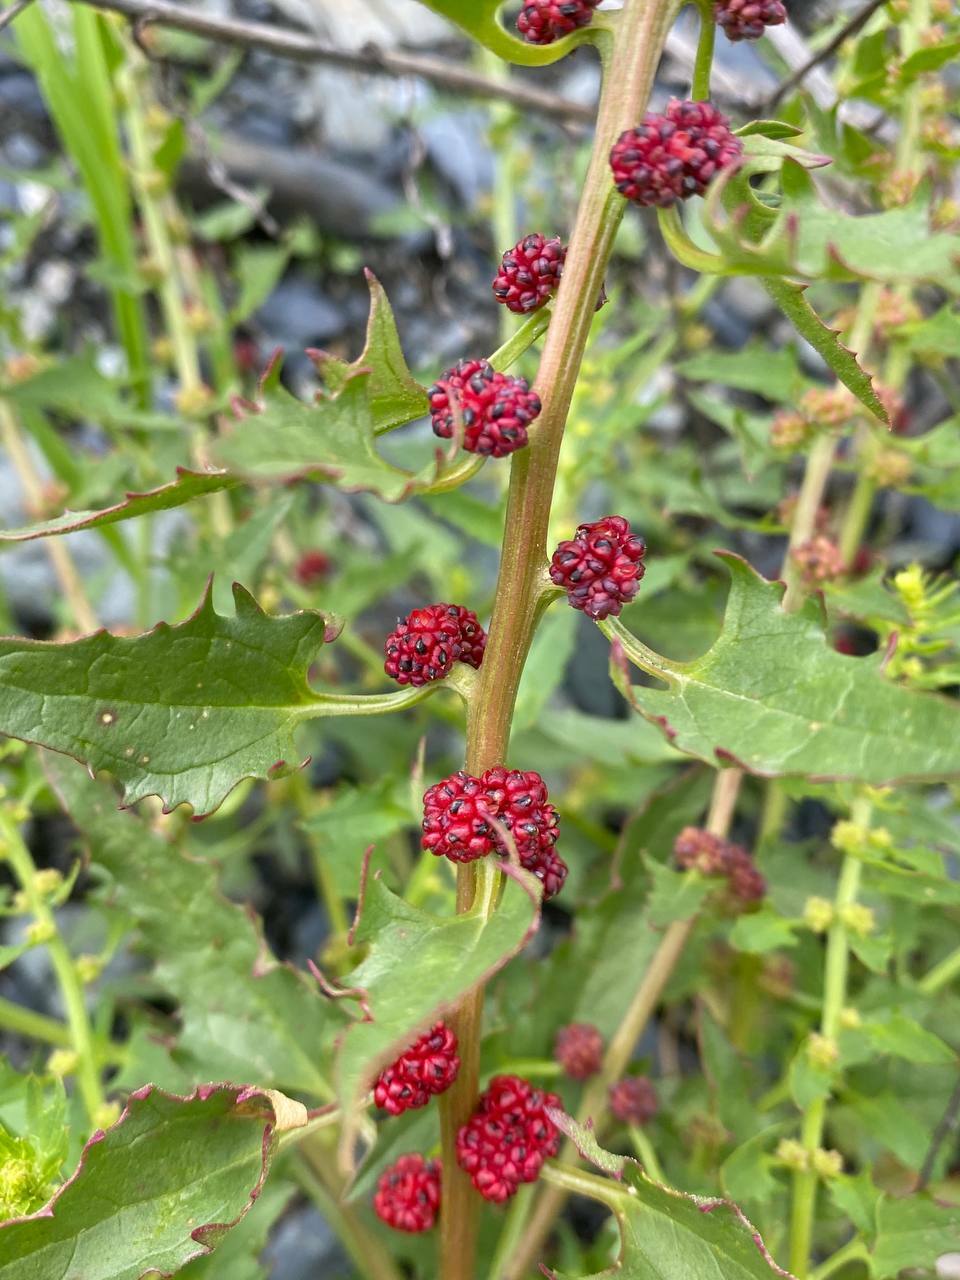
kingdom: Plantae
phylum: Tracheophyta
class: Magnoliopsida
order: Caryophyllales
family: Amaranthaceae
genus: Blitum
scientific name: Blitum virgatum
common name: Strawberry goosefoot
